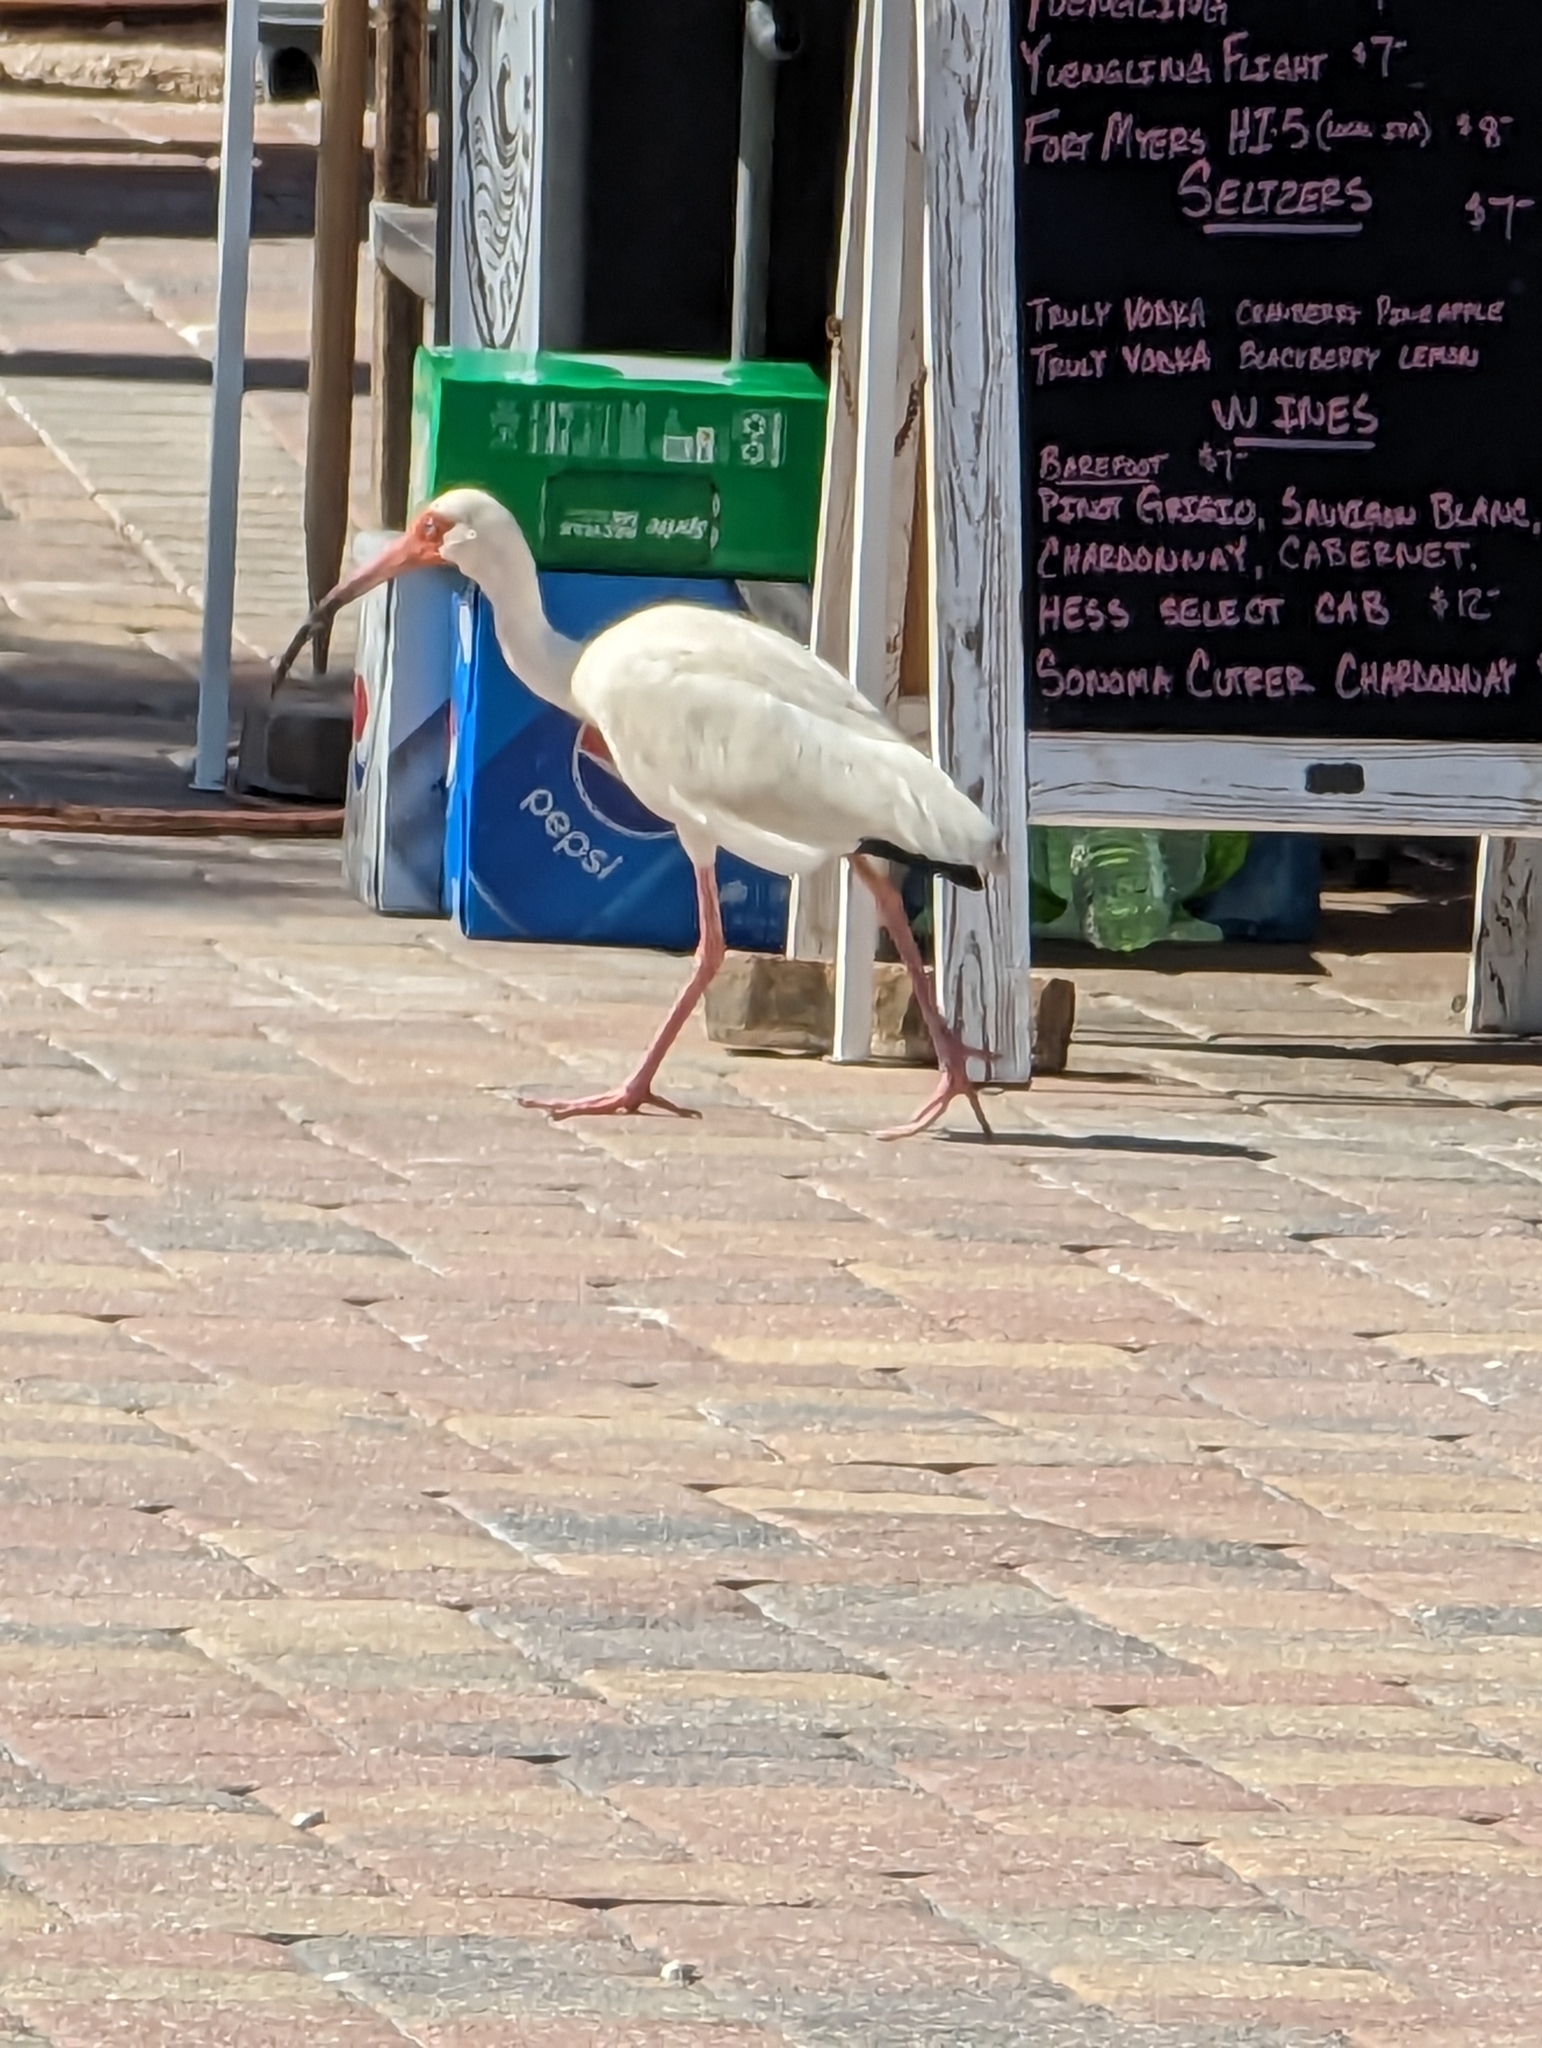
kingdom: Animalia
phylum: Chordata
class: Aves
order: Pelecaniformes
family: Threskiornithidae
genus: Eudocimus
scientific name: Eudocimus albus
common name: White ibis
